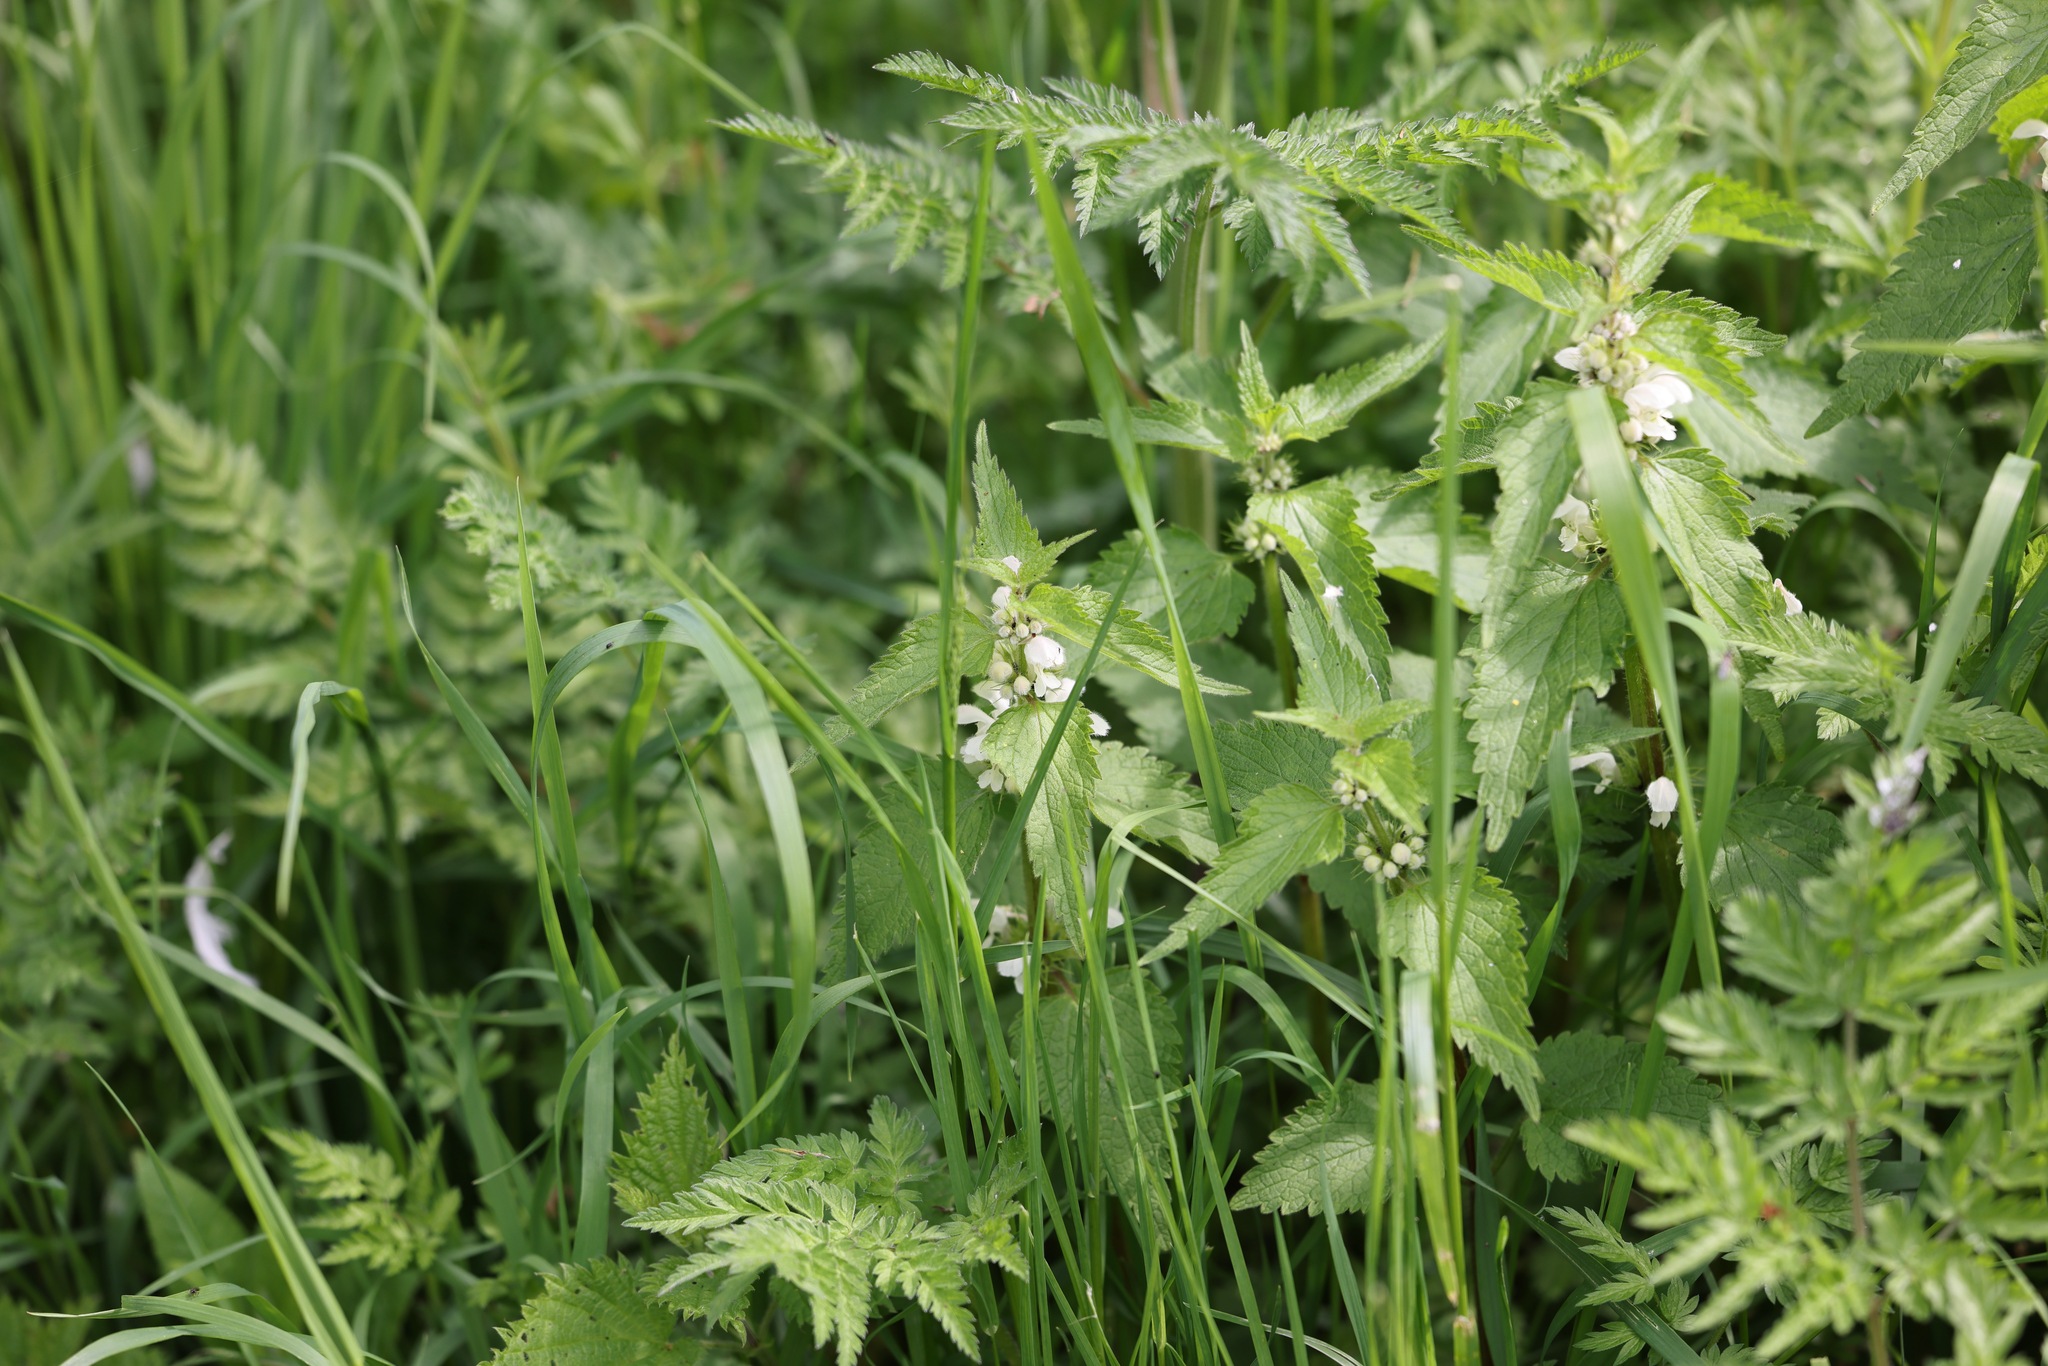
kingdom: Plantae
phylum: Tracheophyta
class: Magnoliopsida
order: Lamiales
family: Lamiaceae
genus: Lamium
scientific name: Lamium album
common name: White dead-nettle
